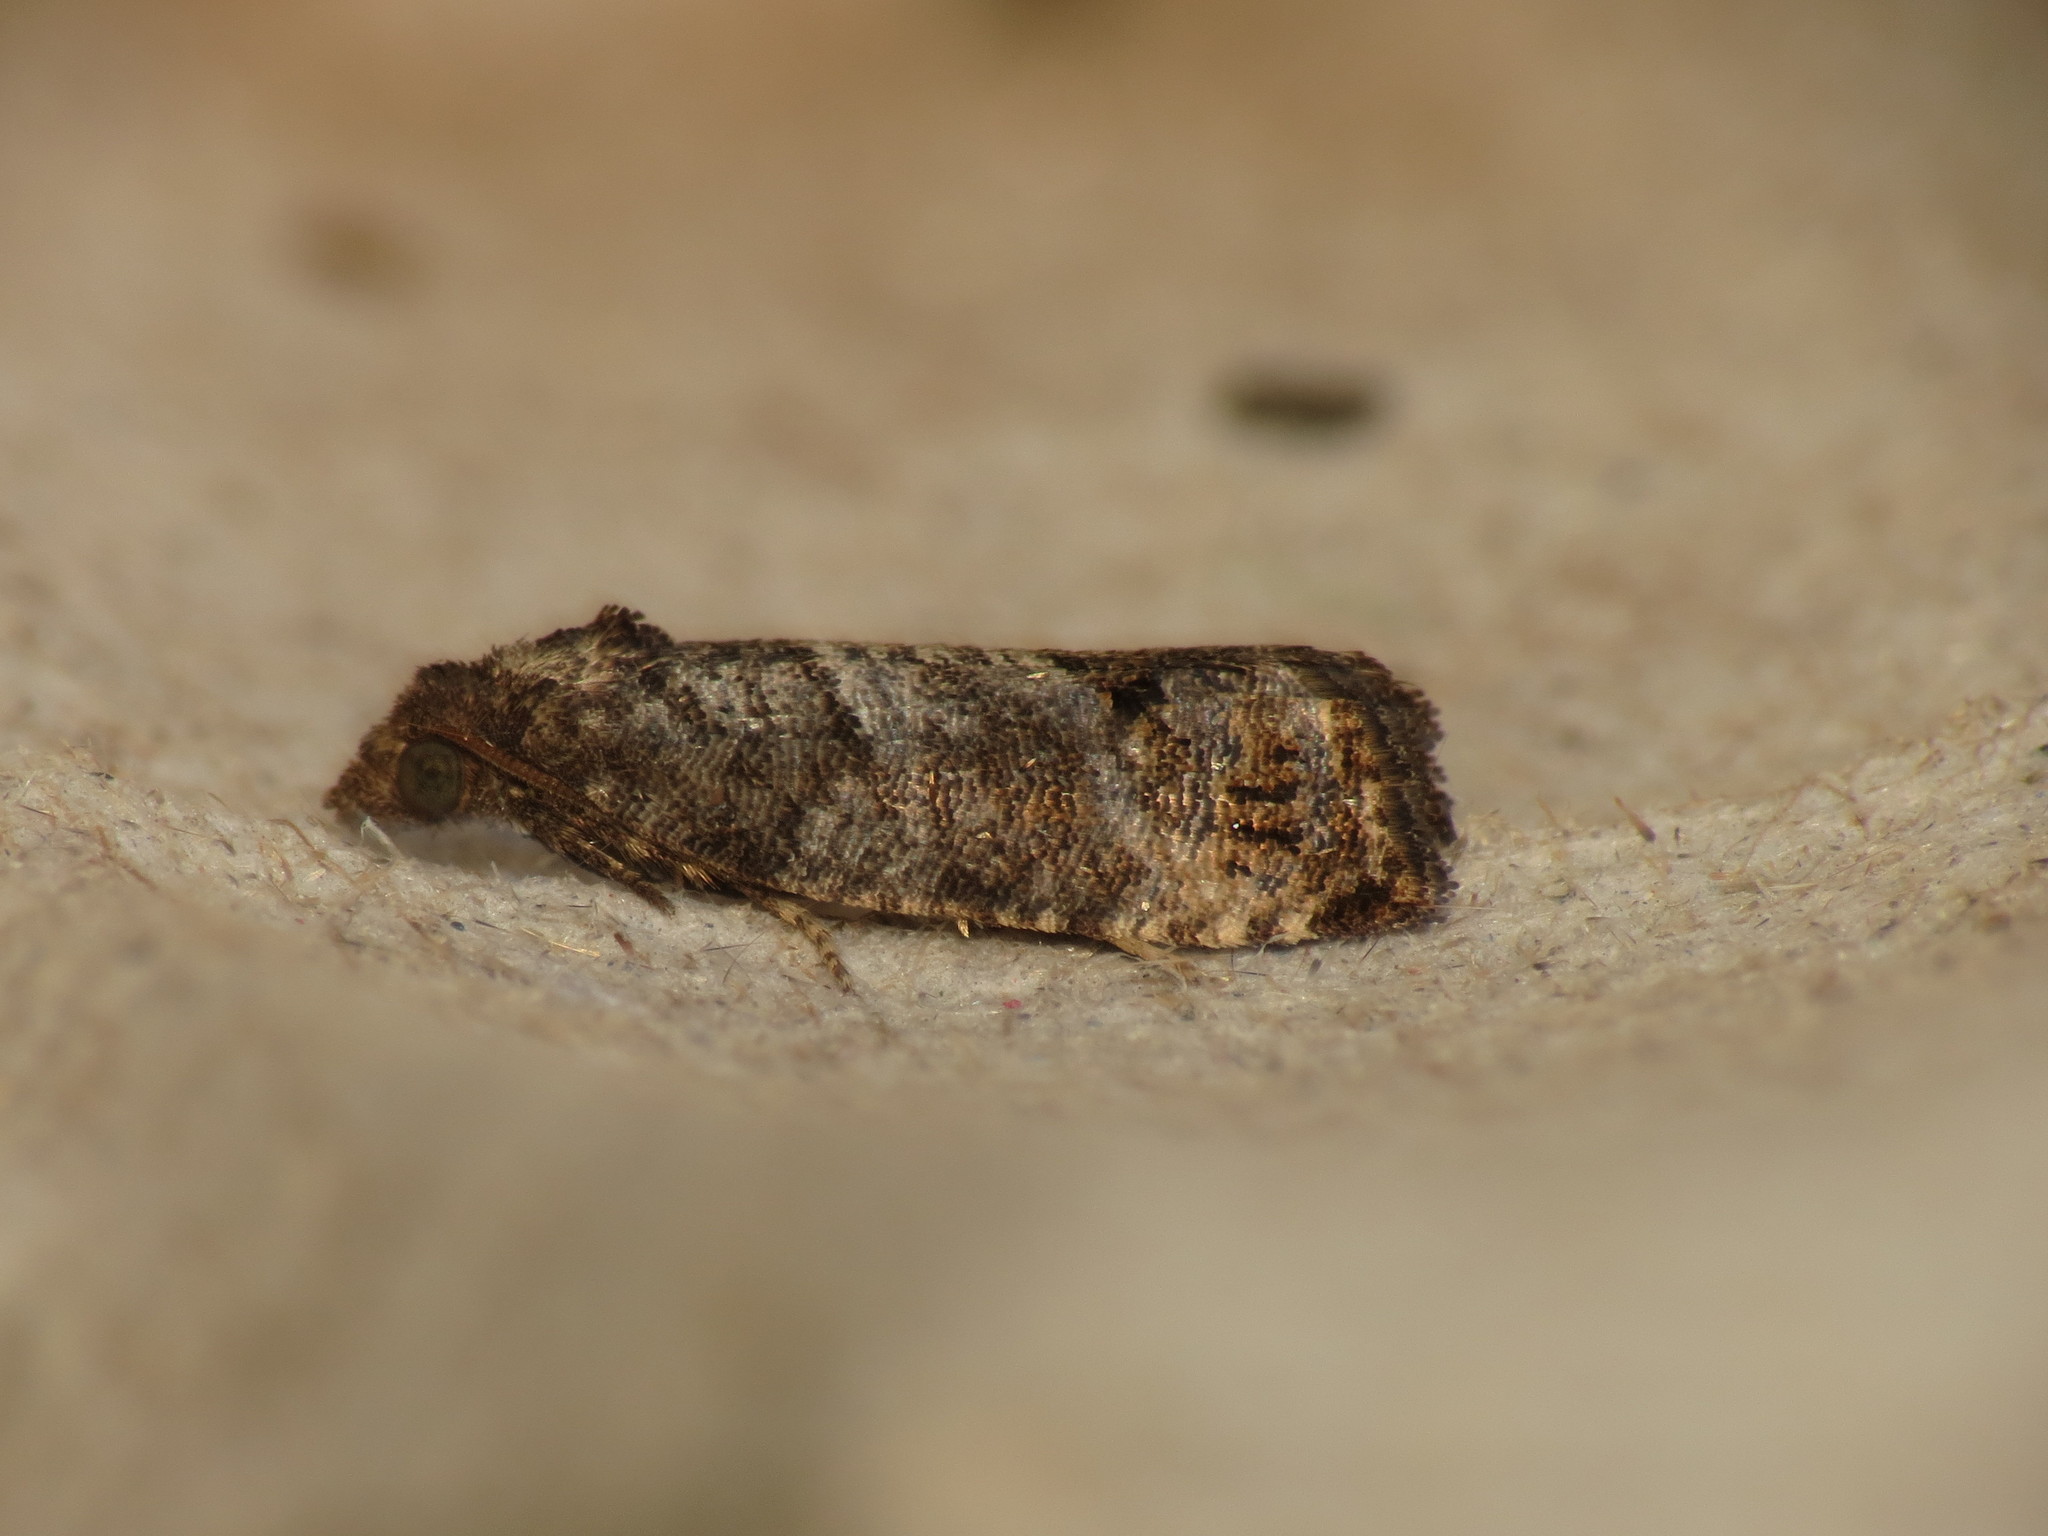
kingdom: Animalia
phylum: Arthropoda
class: Insecta
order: Lepidoptera
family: Tortricidae
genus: Spilonota
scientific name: Spilonota ocellana
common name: Bud moth
